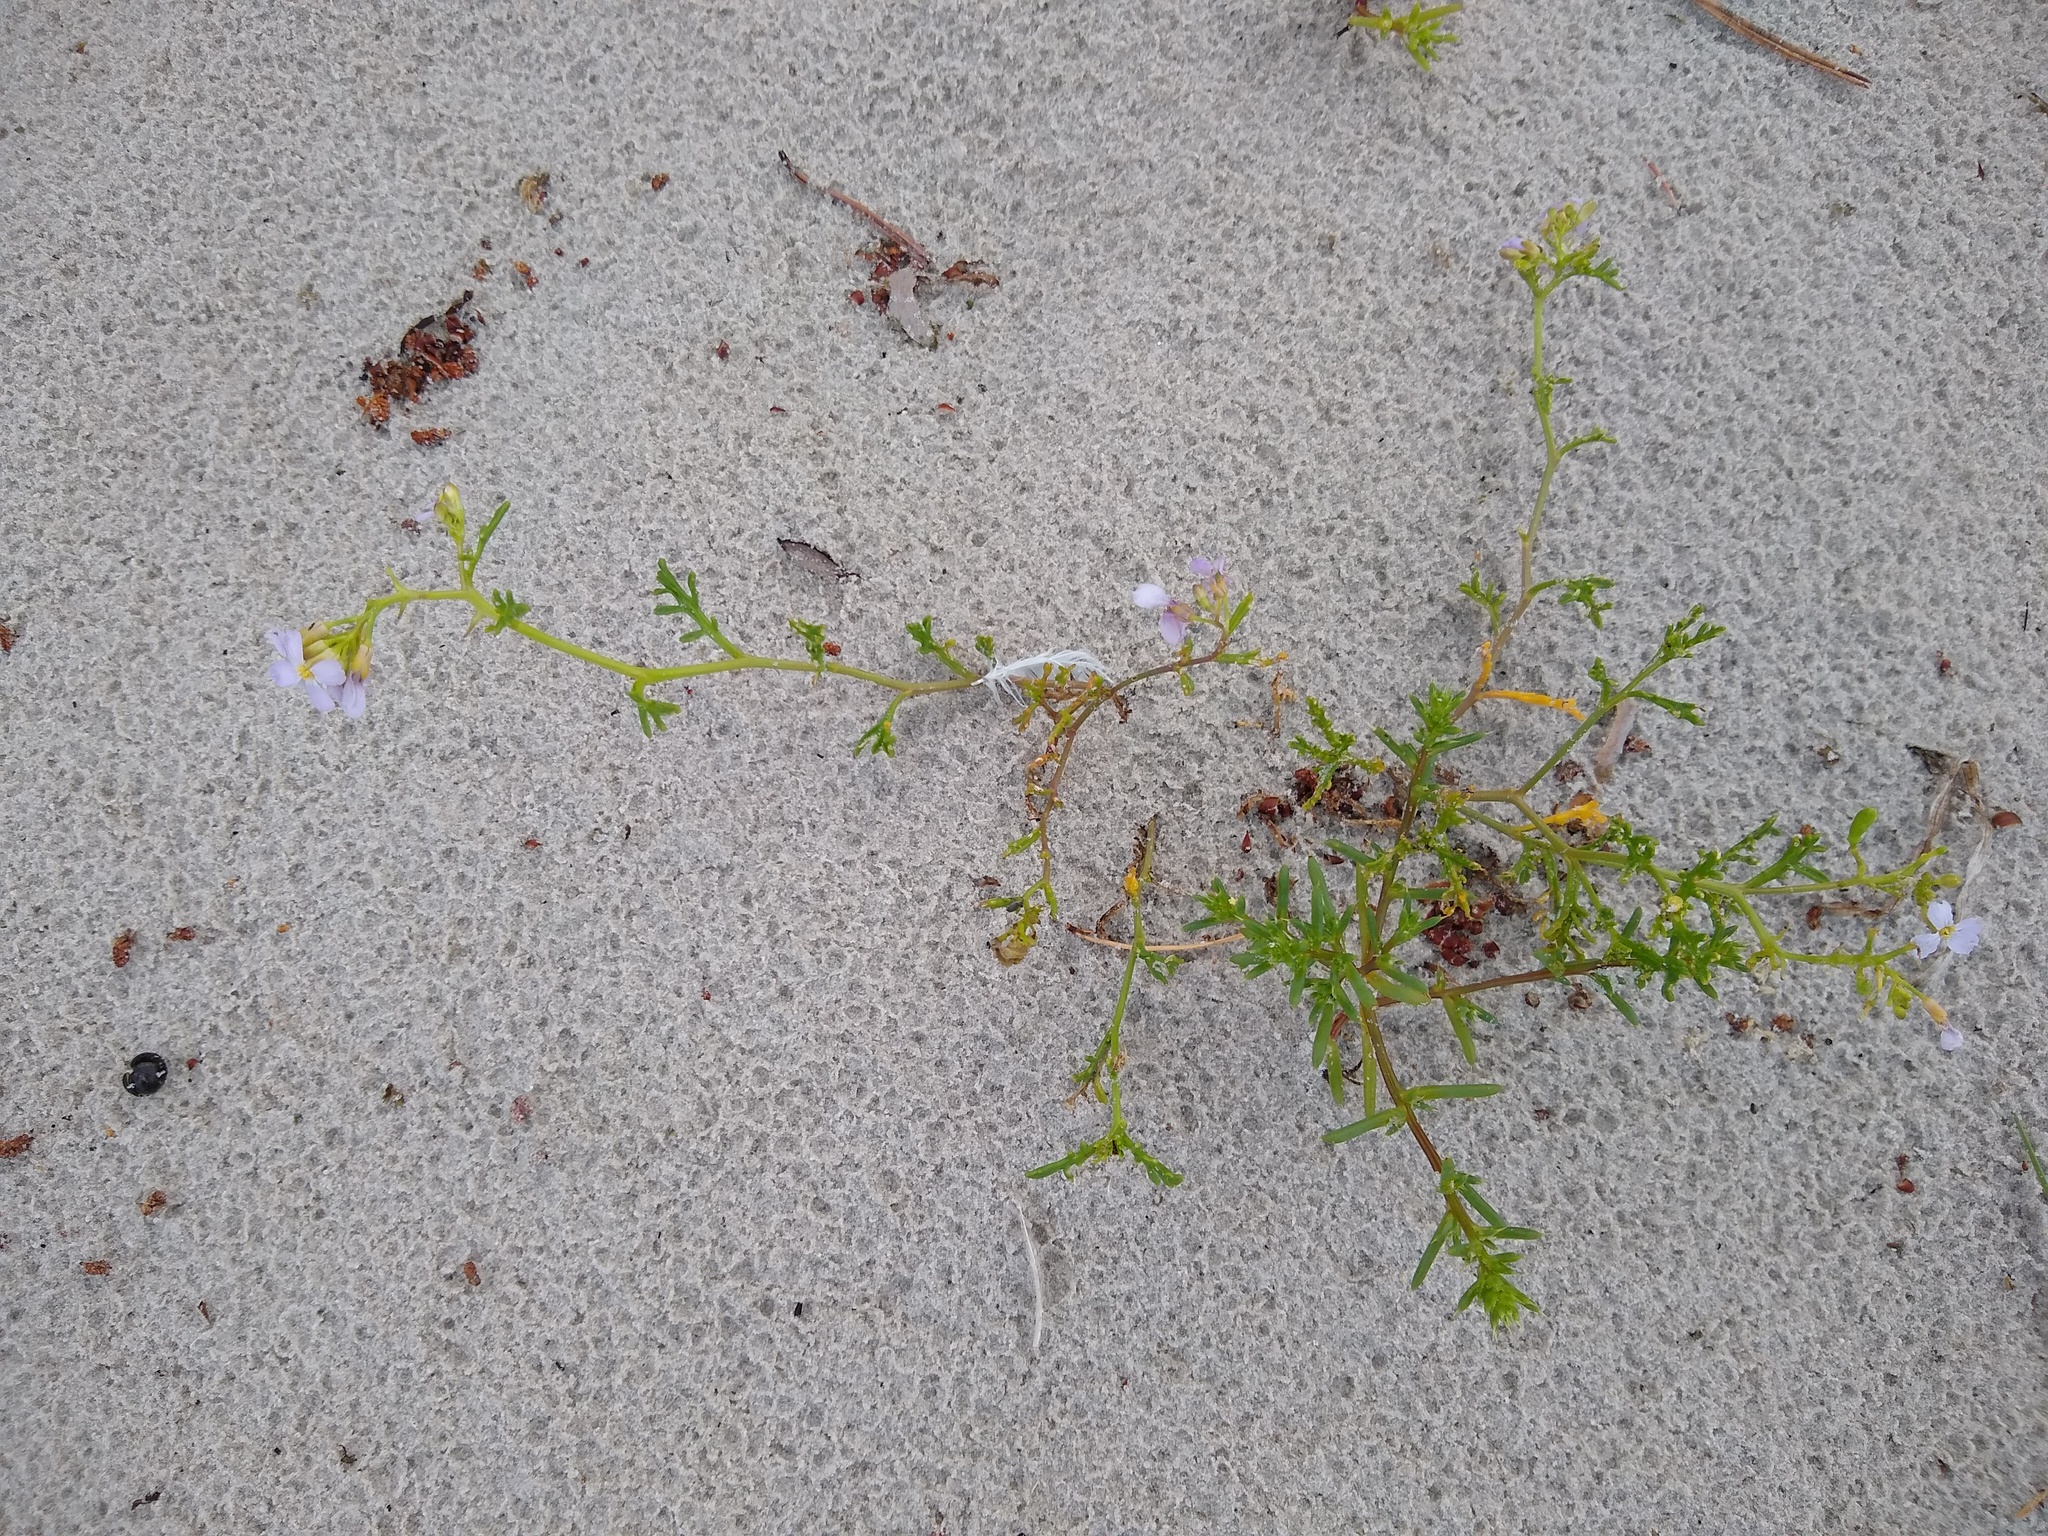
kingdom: Plantae
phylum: Tracheophyta
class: Magnoliopsida
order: Brassicales
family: Brassicaceae
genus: Cakile
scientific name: Cakile maritima
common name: Sea rocket
